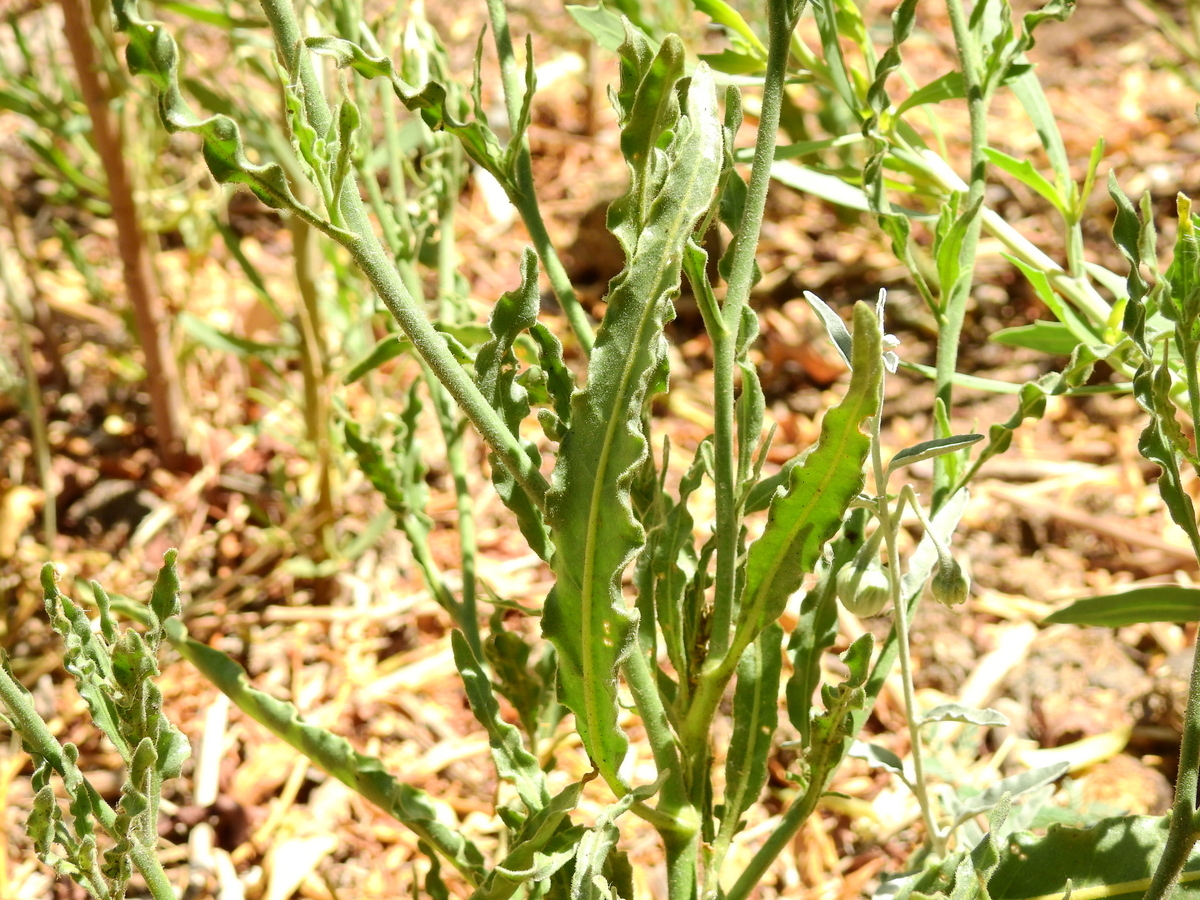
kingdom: Plantae
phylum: Tracheophyta
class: Magnoliopsida
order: Solanales
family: Solanaceae
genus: Nicotiana
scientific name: Nicotiana noctiflora
